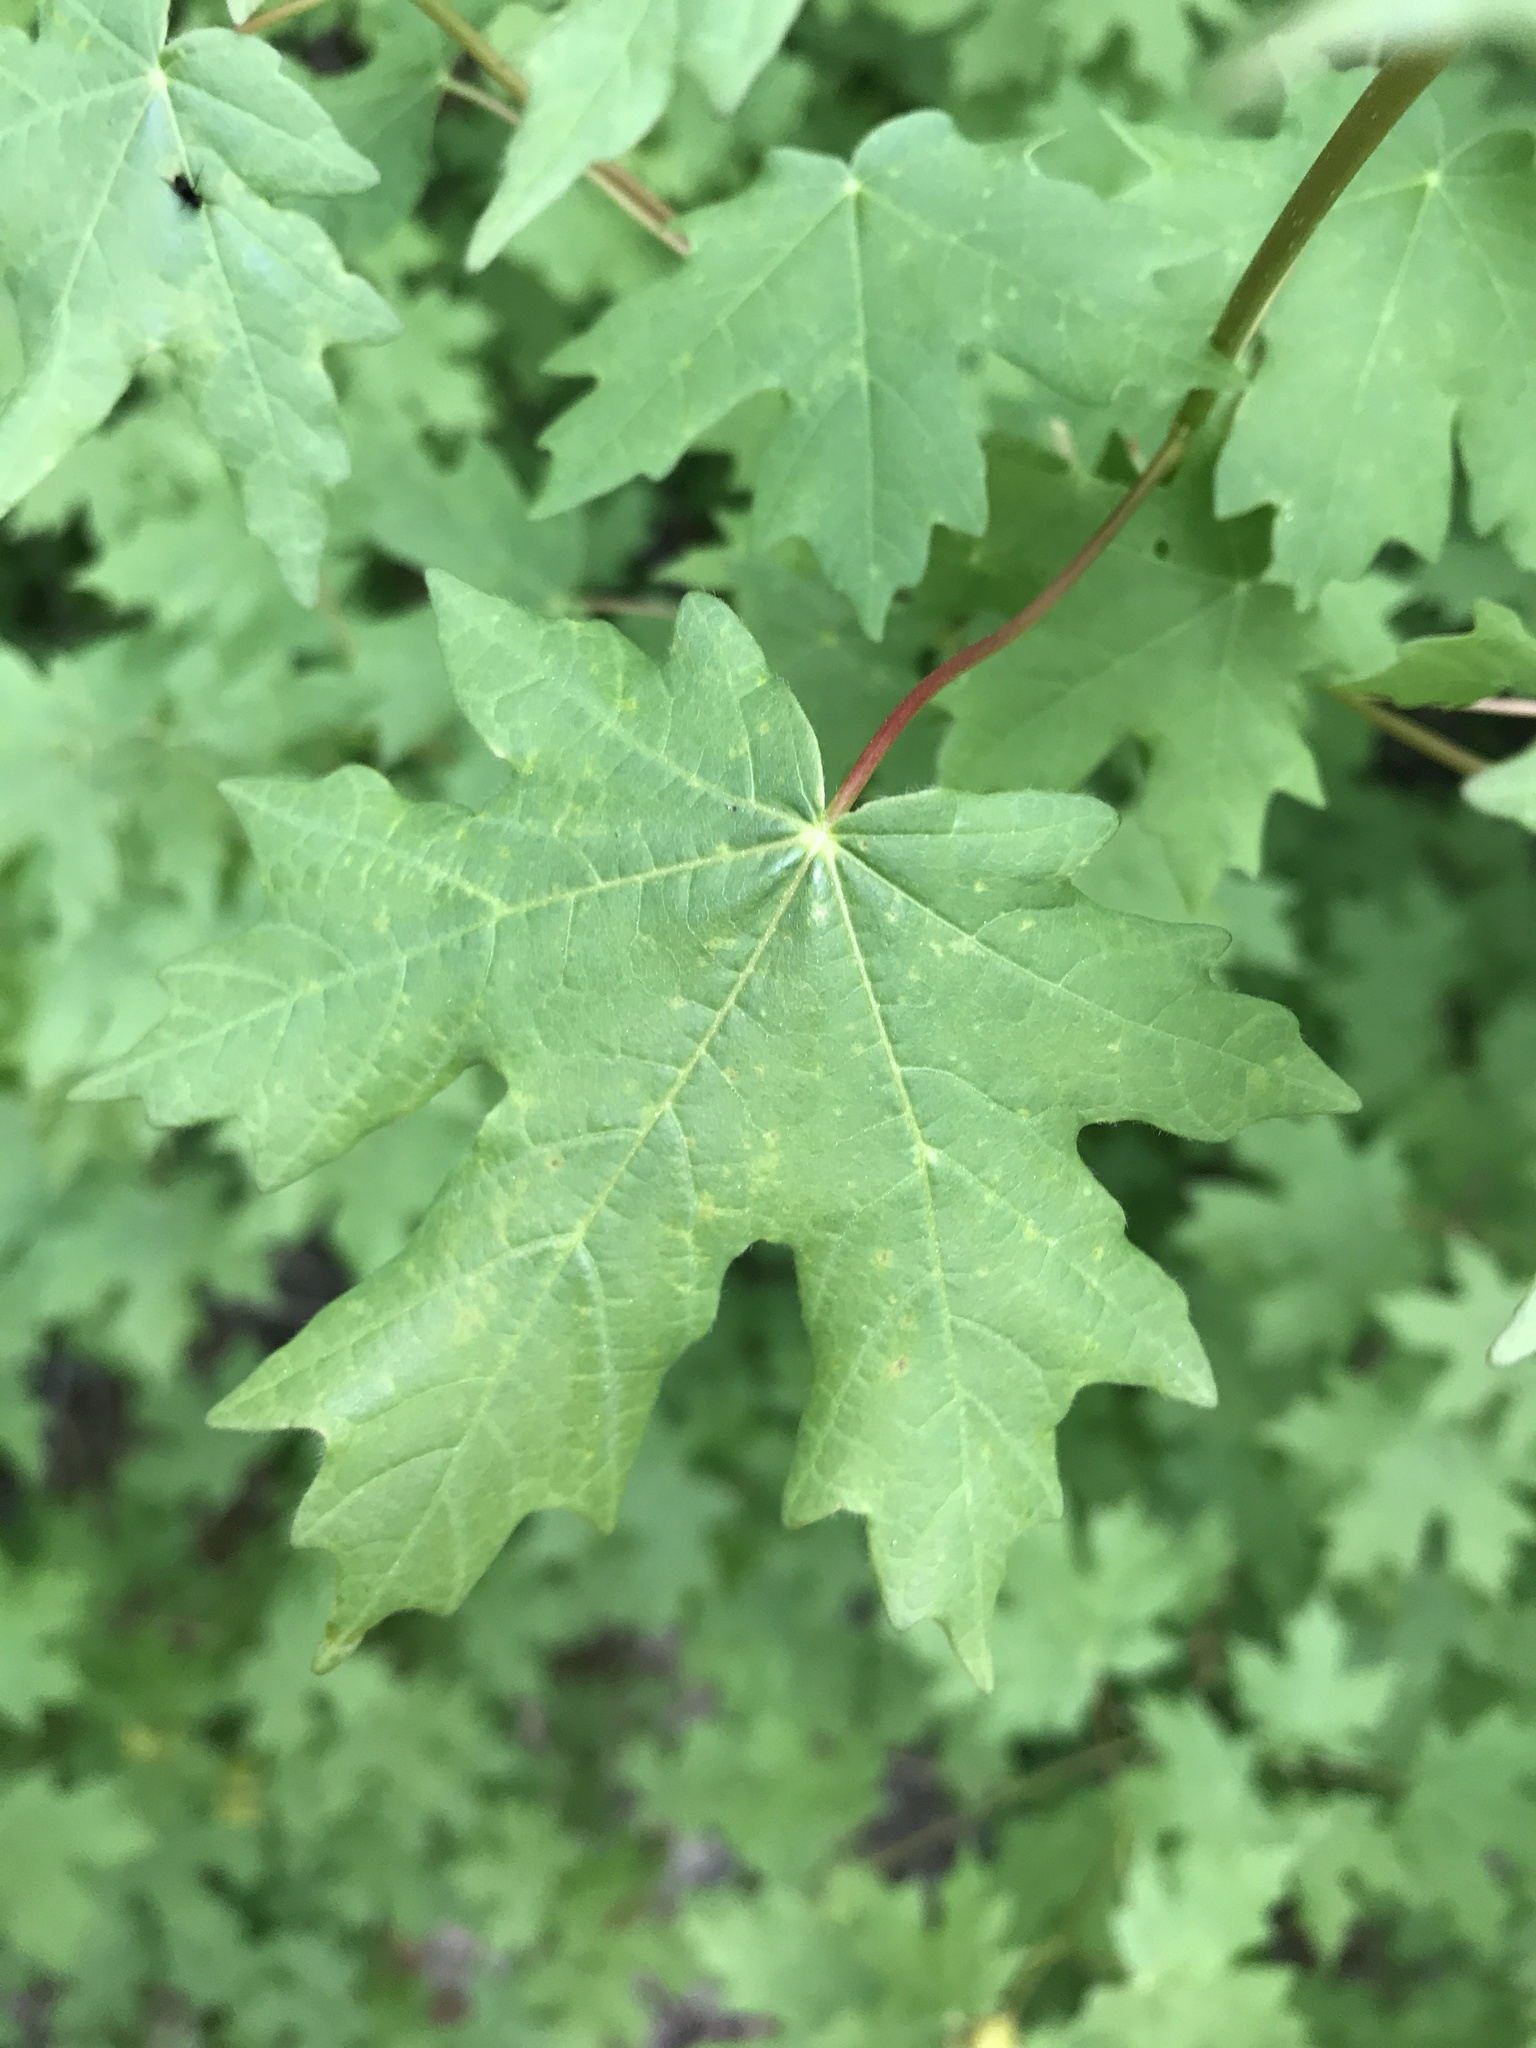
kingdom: Plantae
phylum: Tracheophyta
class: Magnoliopsida
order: Sapindales
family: Sapindaceae
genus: Acer
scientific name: Acer grandidentatum
